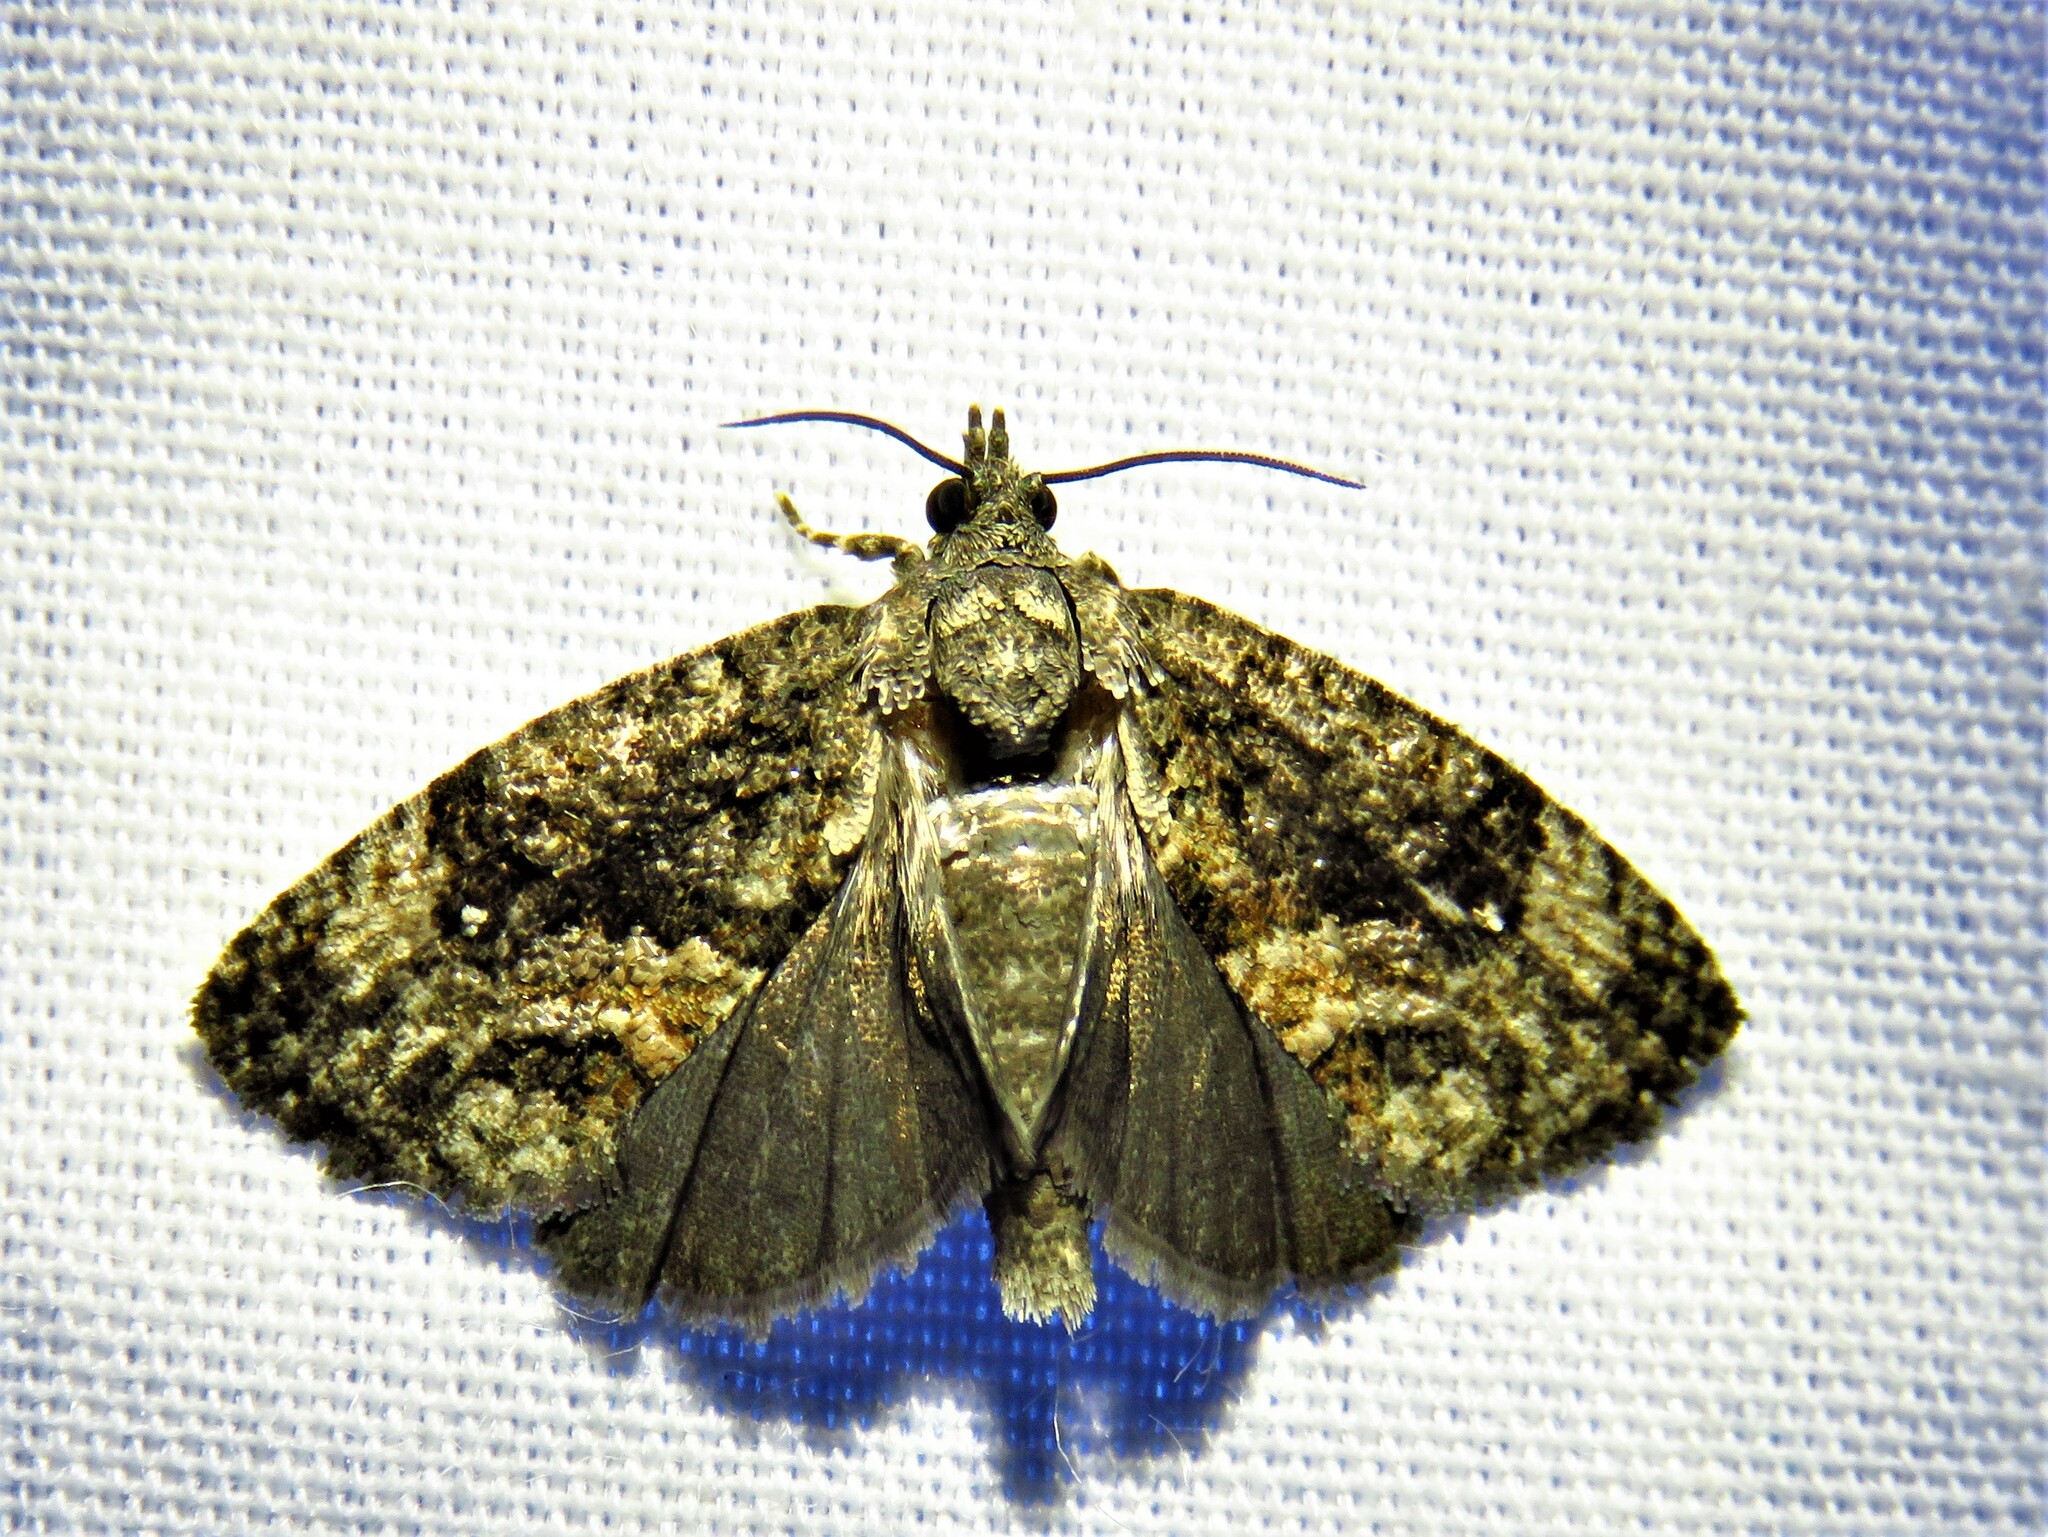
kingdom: Animalia
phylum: Arthropoda
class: Insecta
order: Lepidoptera
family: Tortricidae
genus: Gymnandrosoma
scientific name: Gymnandrosoma punctidiscanum
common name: Dotted ecdytolopha moth
